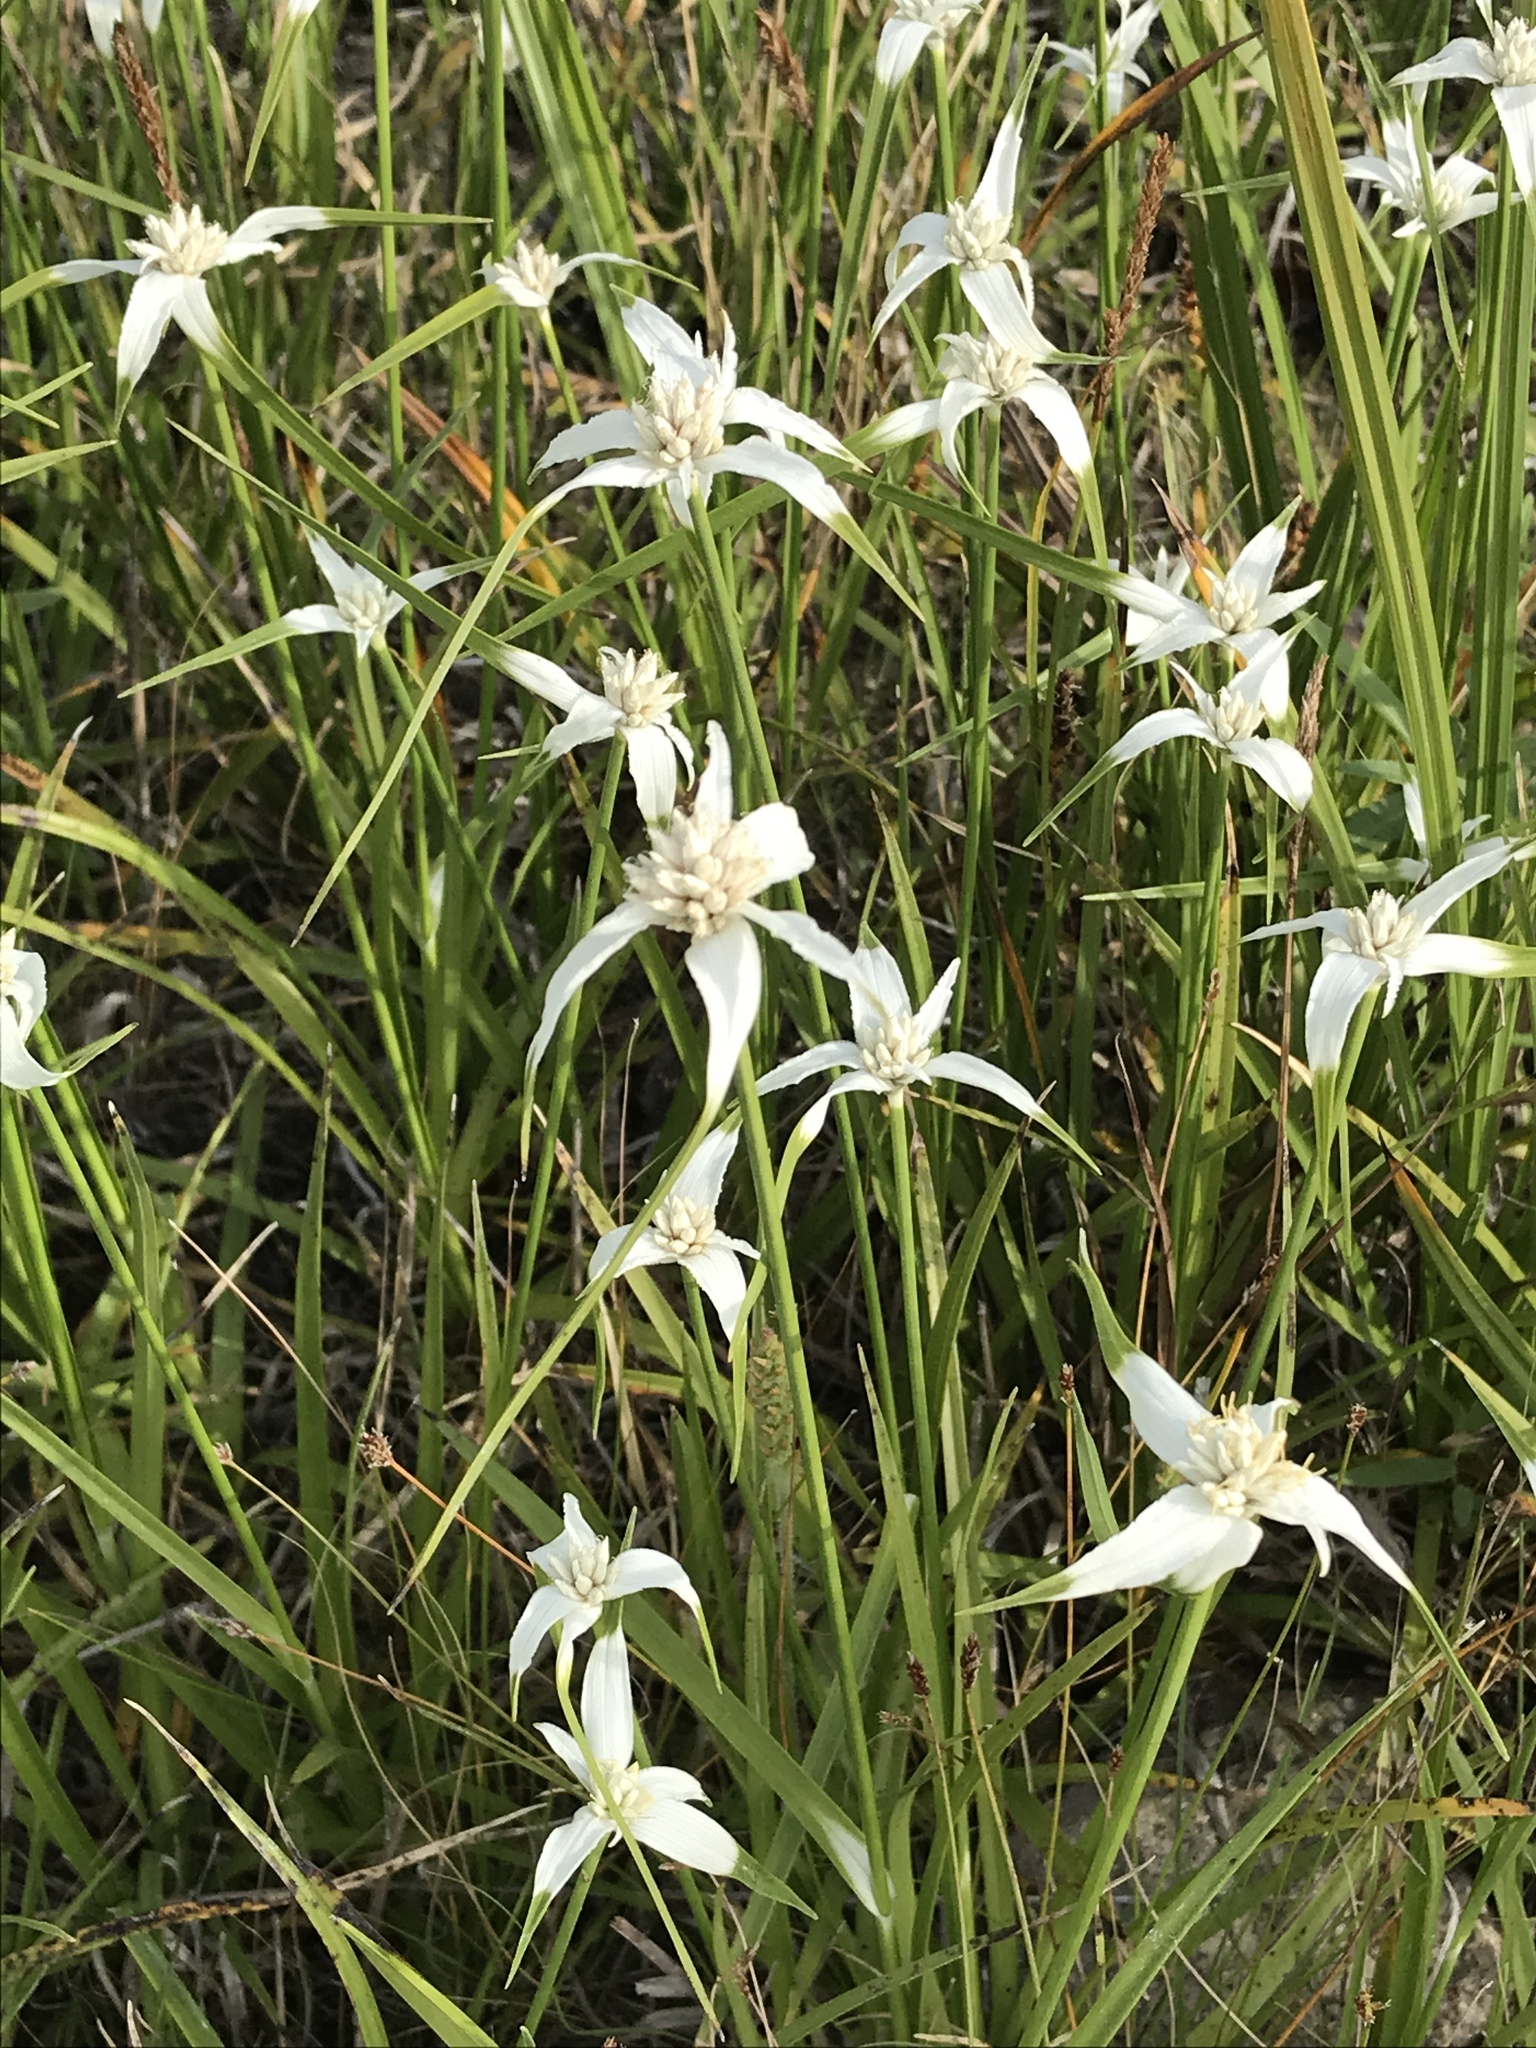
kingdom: Plantae
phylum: Tracheophyta
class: Liliopsida
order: Poales
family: Cyperaceae
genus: Rhynchospora
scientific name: Rhynchospora colorata
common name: Star sedge
